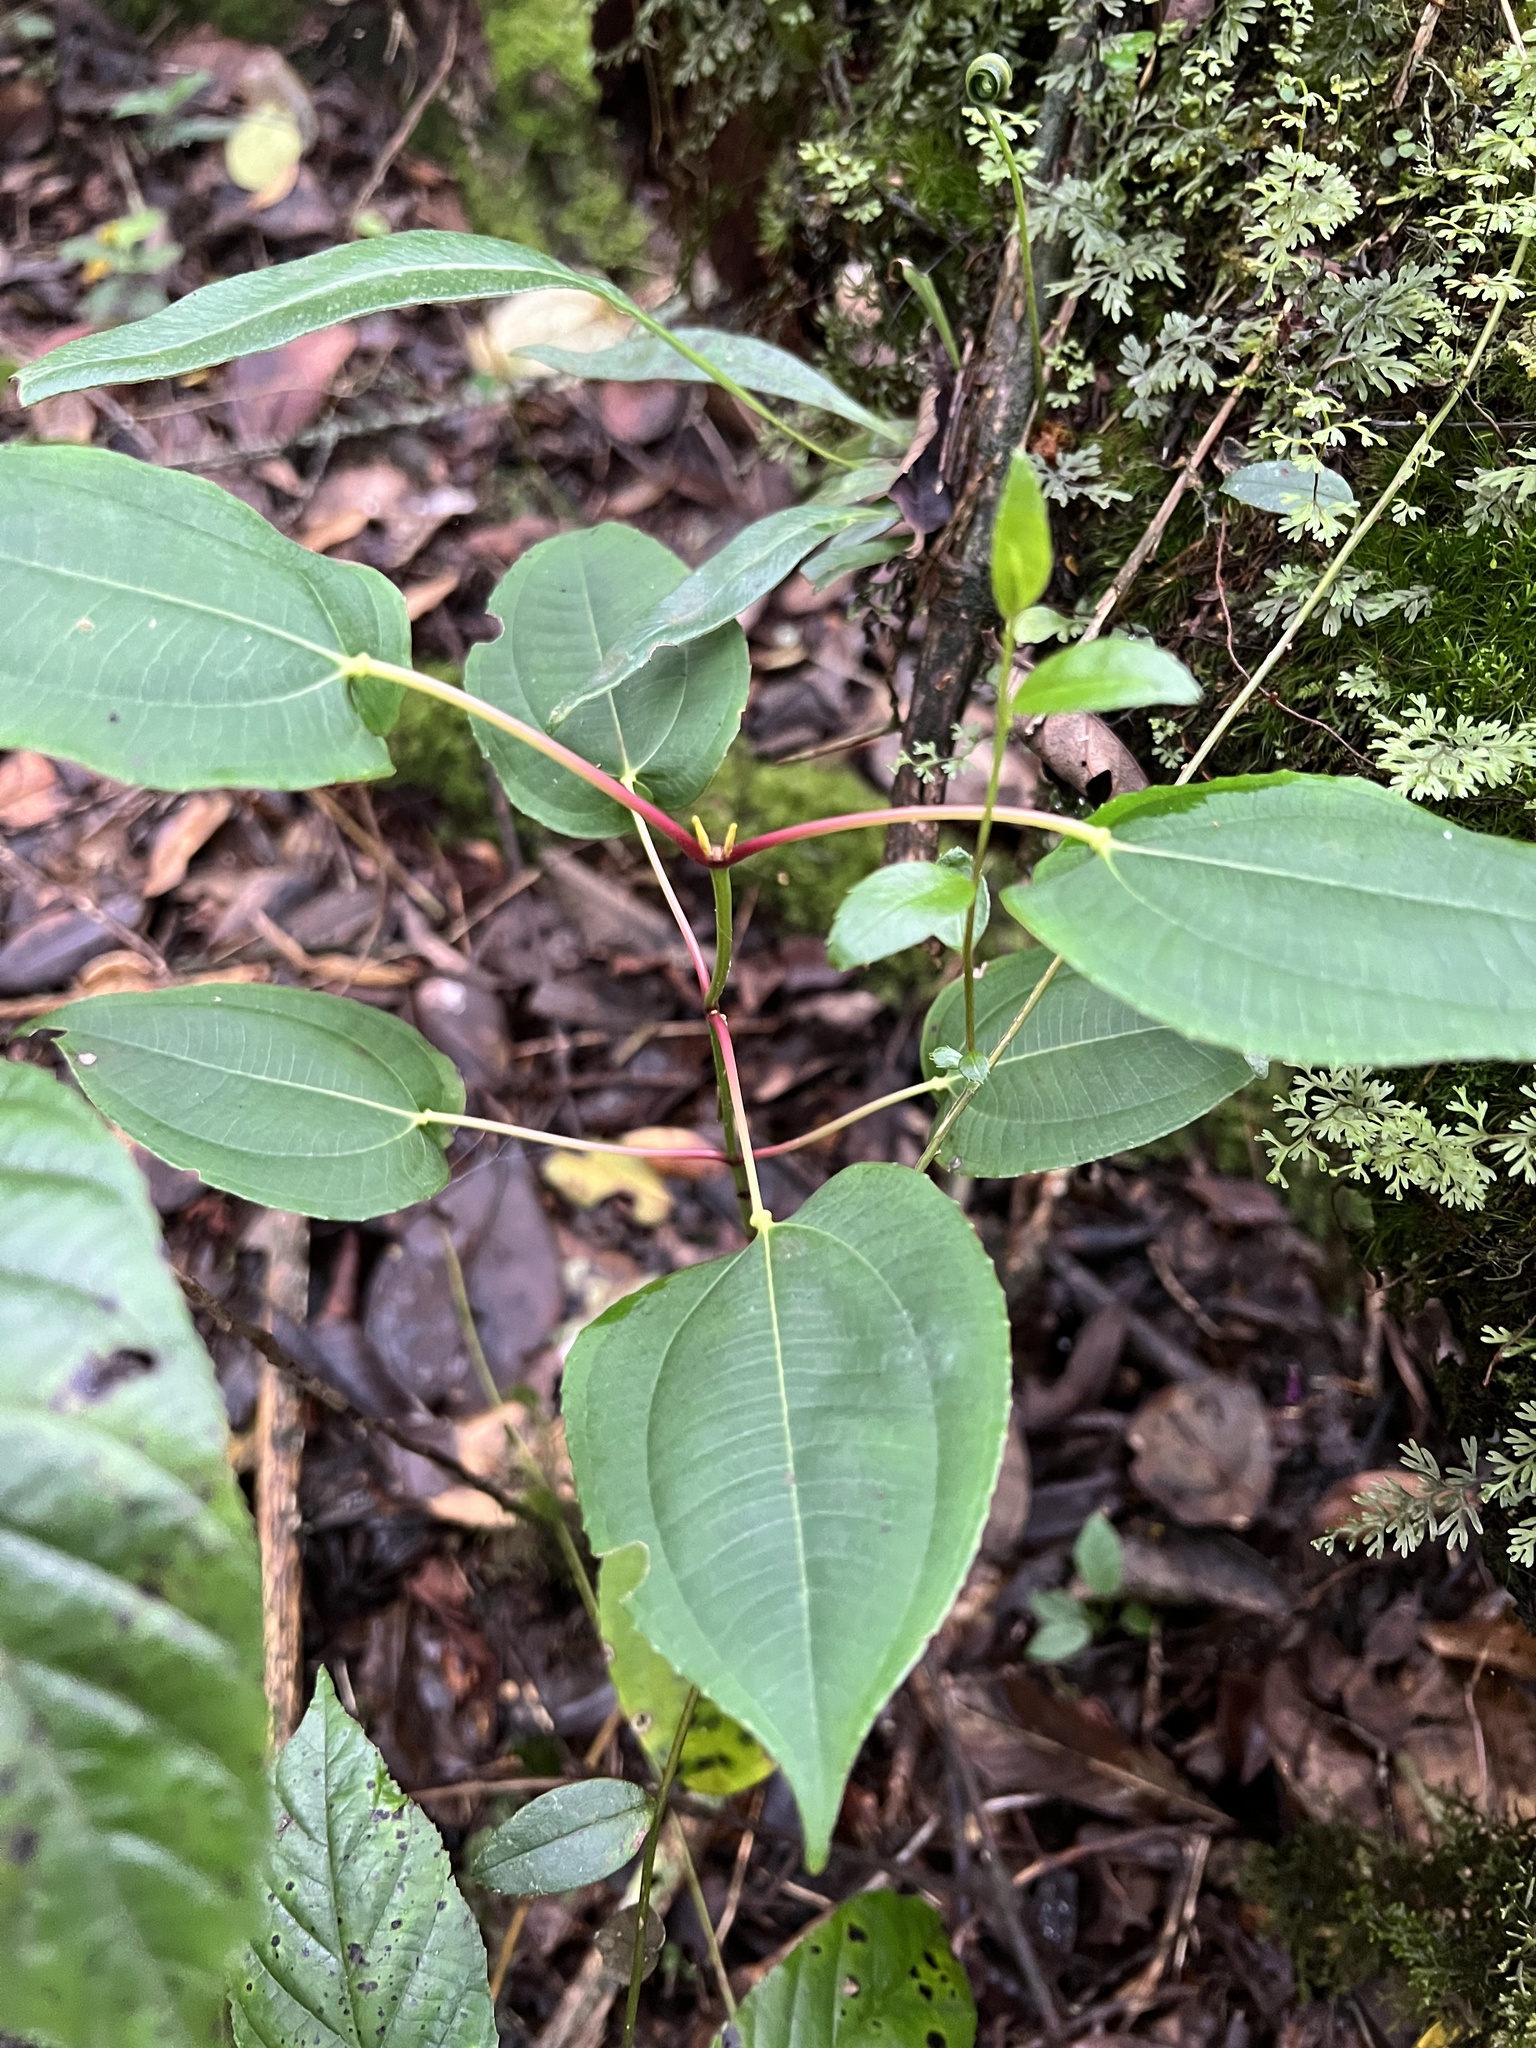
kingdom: Plantae
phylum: Tracheophyta
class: Magnoliopsida
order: Myrtales
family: Melastomataceae
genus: Axinaea
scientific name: Axinaea scutigera
